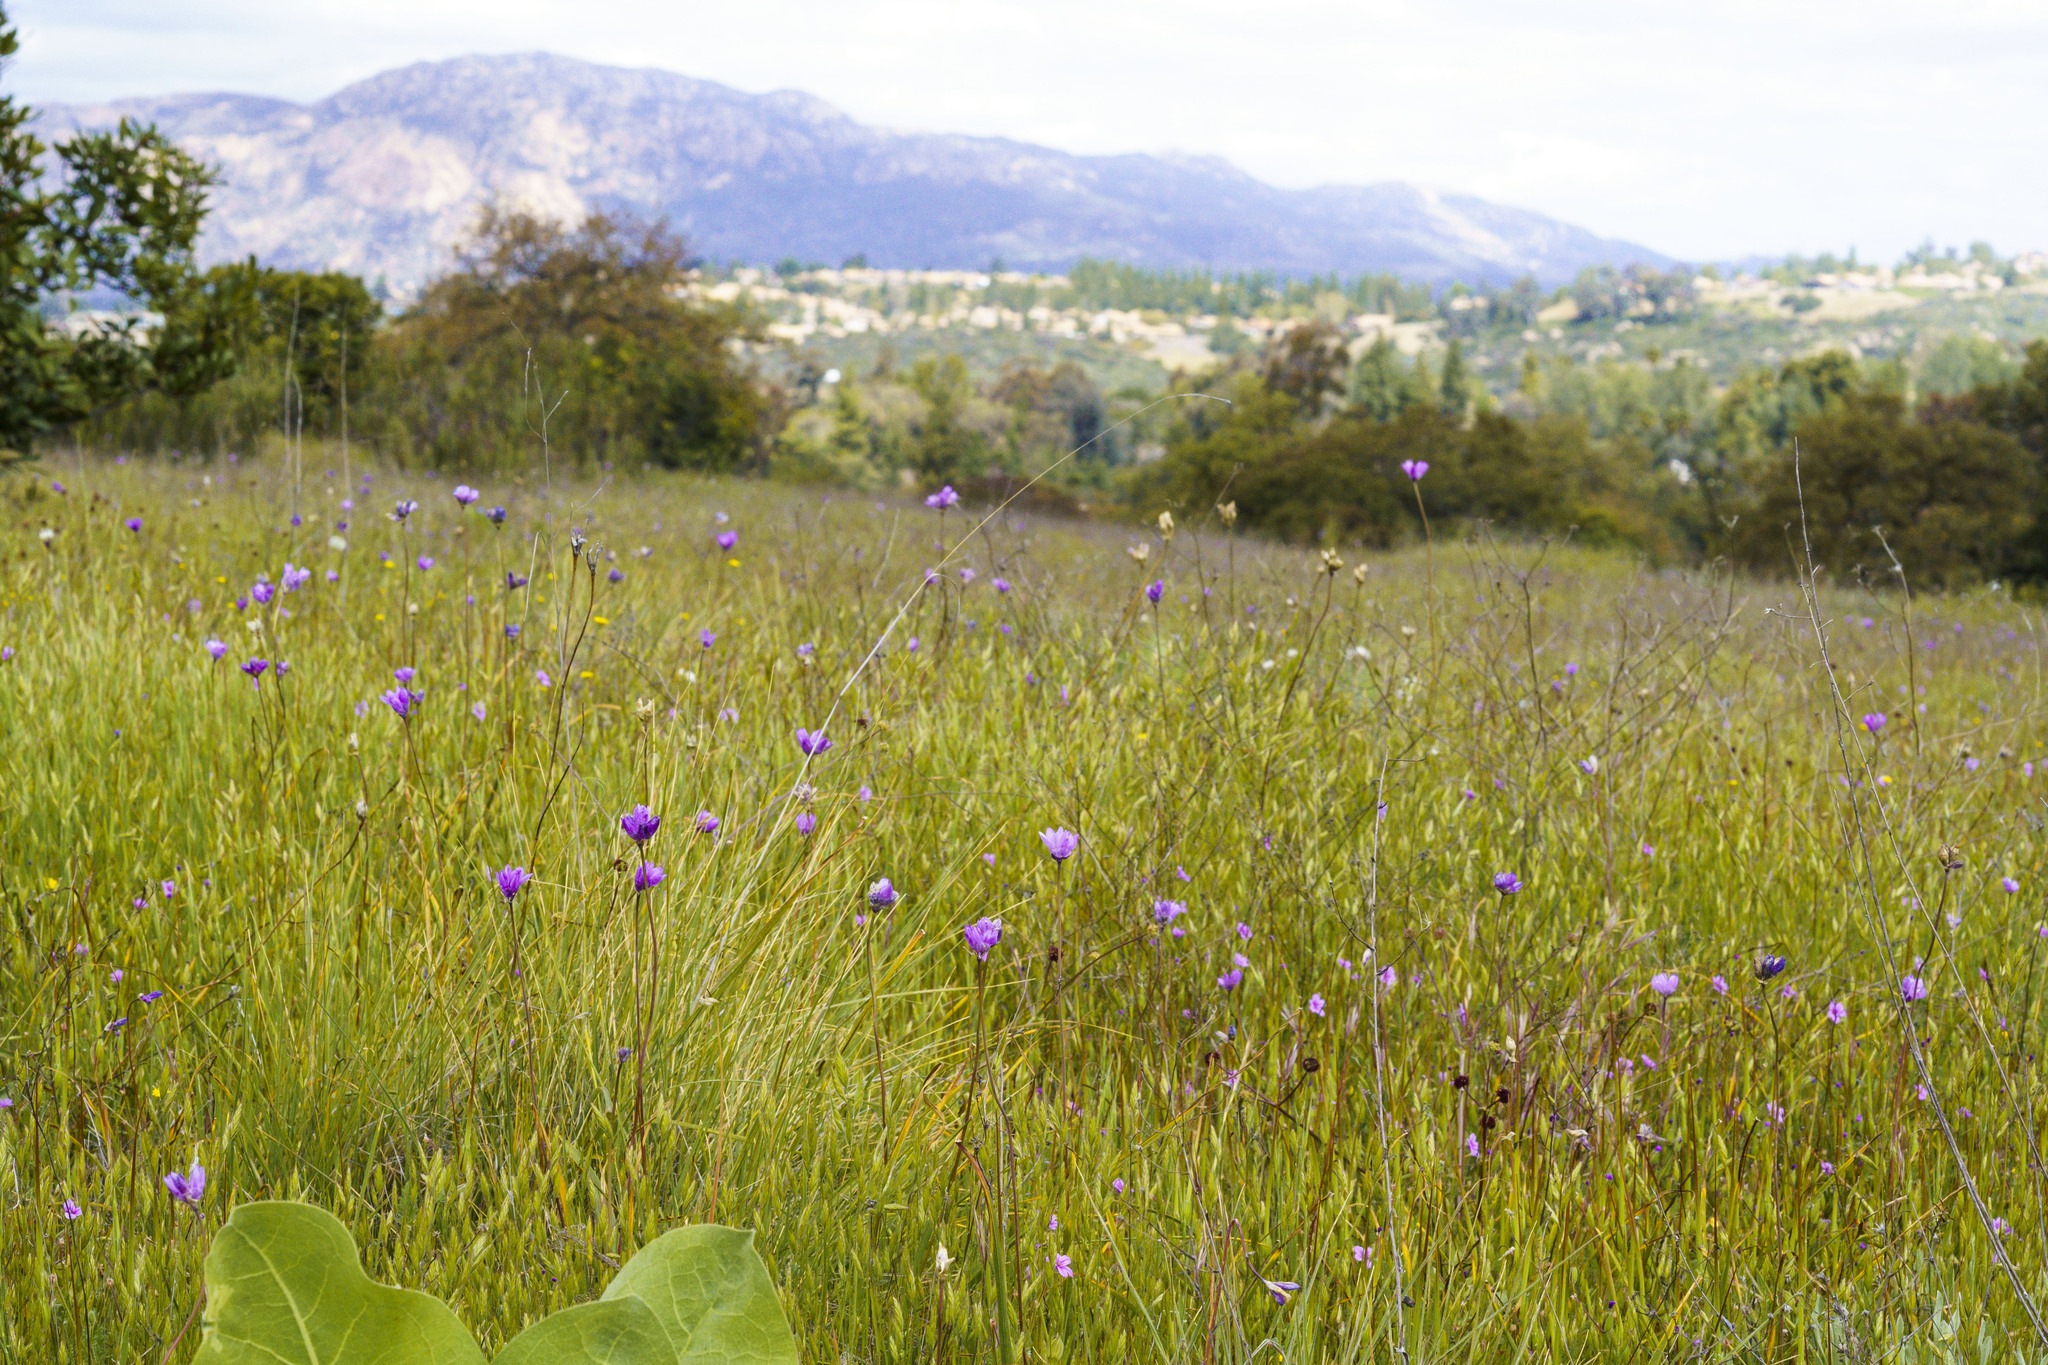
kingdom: Plantae
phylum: Tracheophyta
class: Liliopsida
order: Asparagales
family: Asparagaceae
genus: Dipterostemon
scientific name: Dipterostemon capitatus
